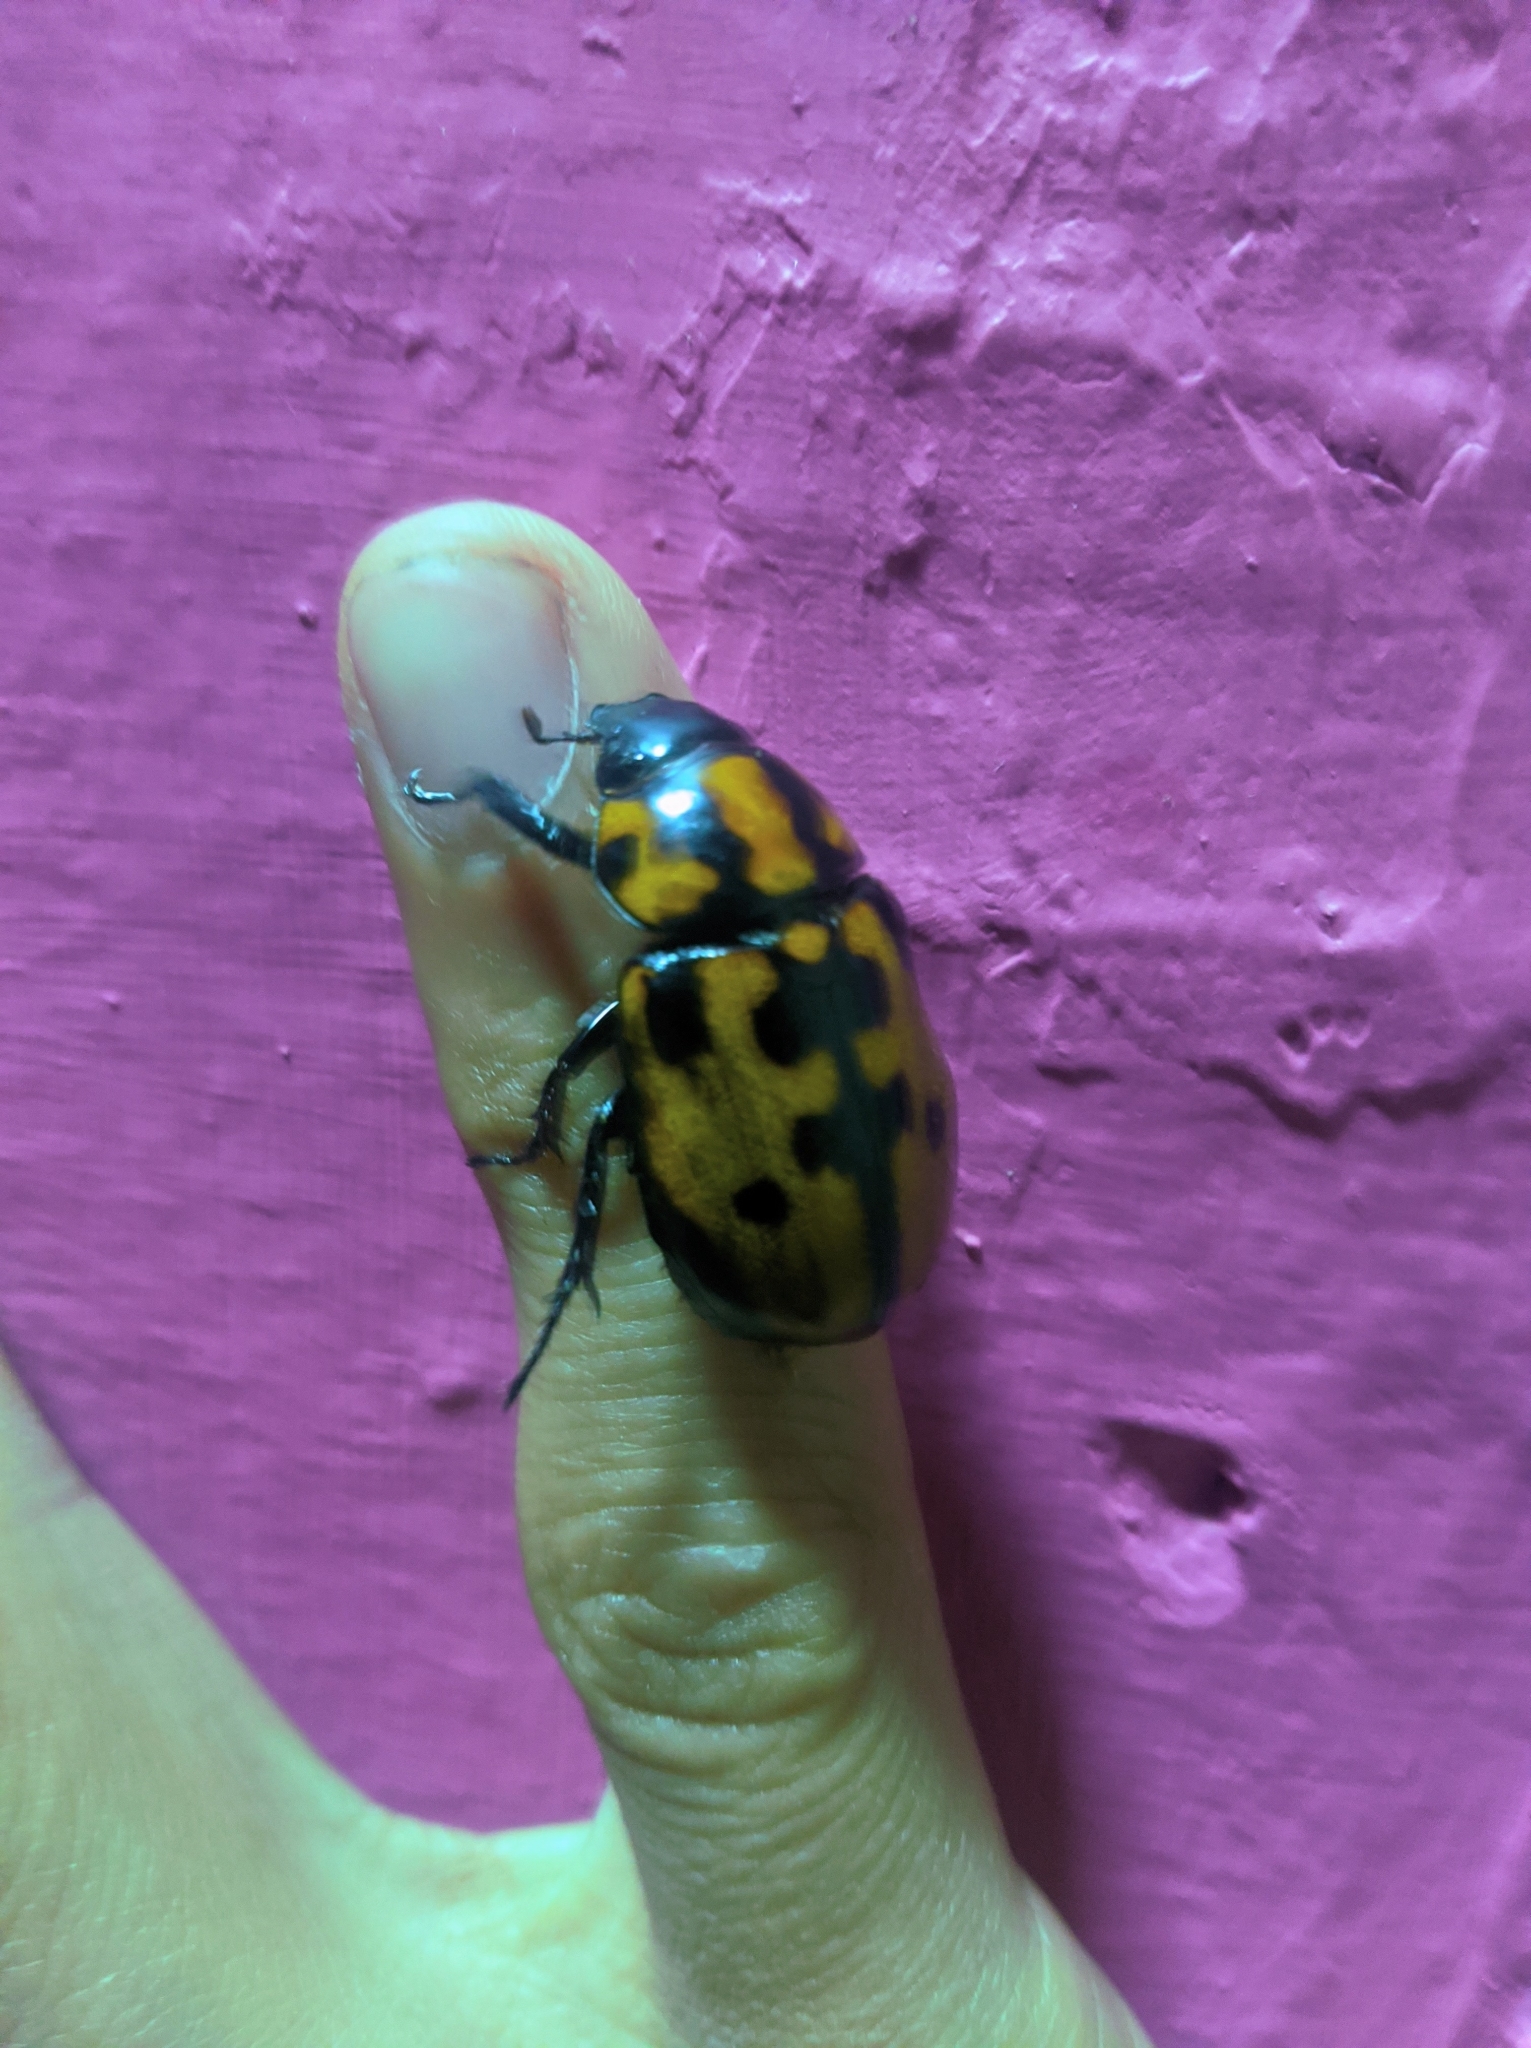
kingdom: Animalia
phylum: Arthropoda
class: Insecta
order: Coleoptera
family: Scarabaeidae
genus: Cyclocephala
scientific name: Cyclocephala mafaffa
